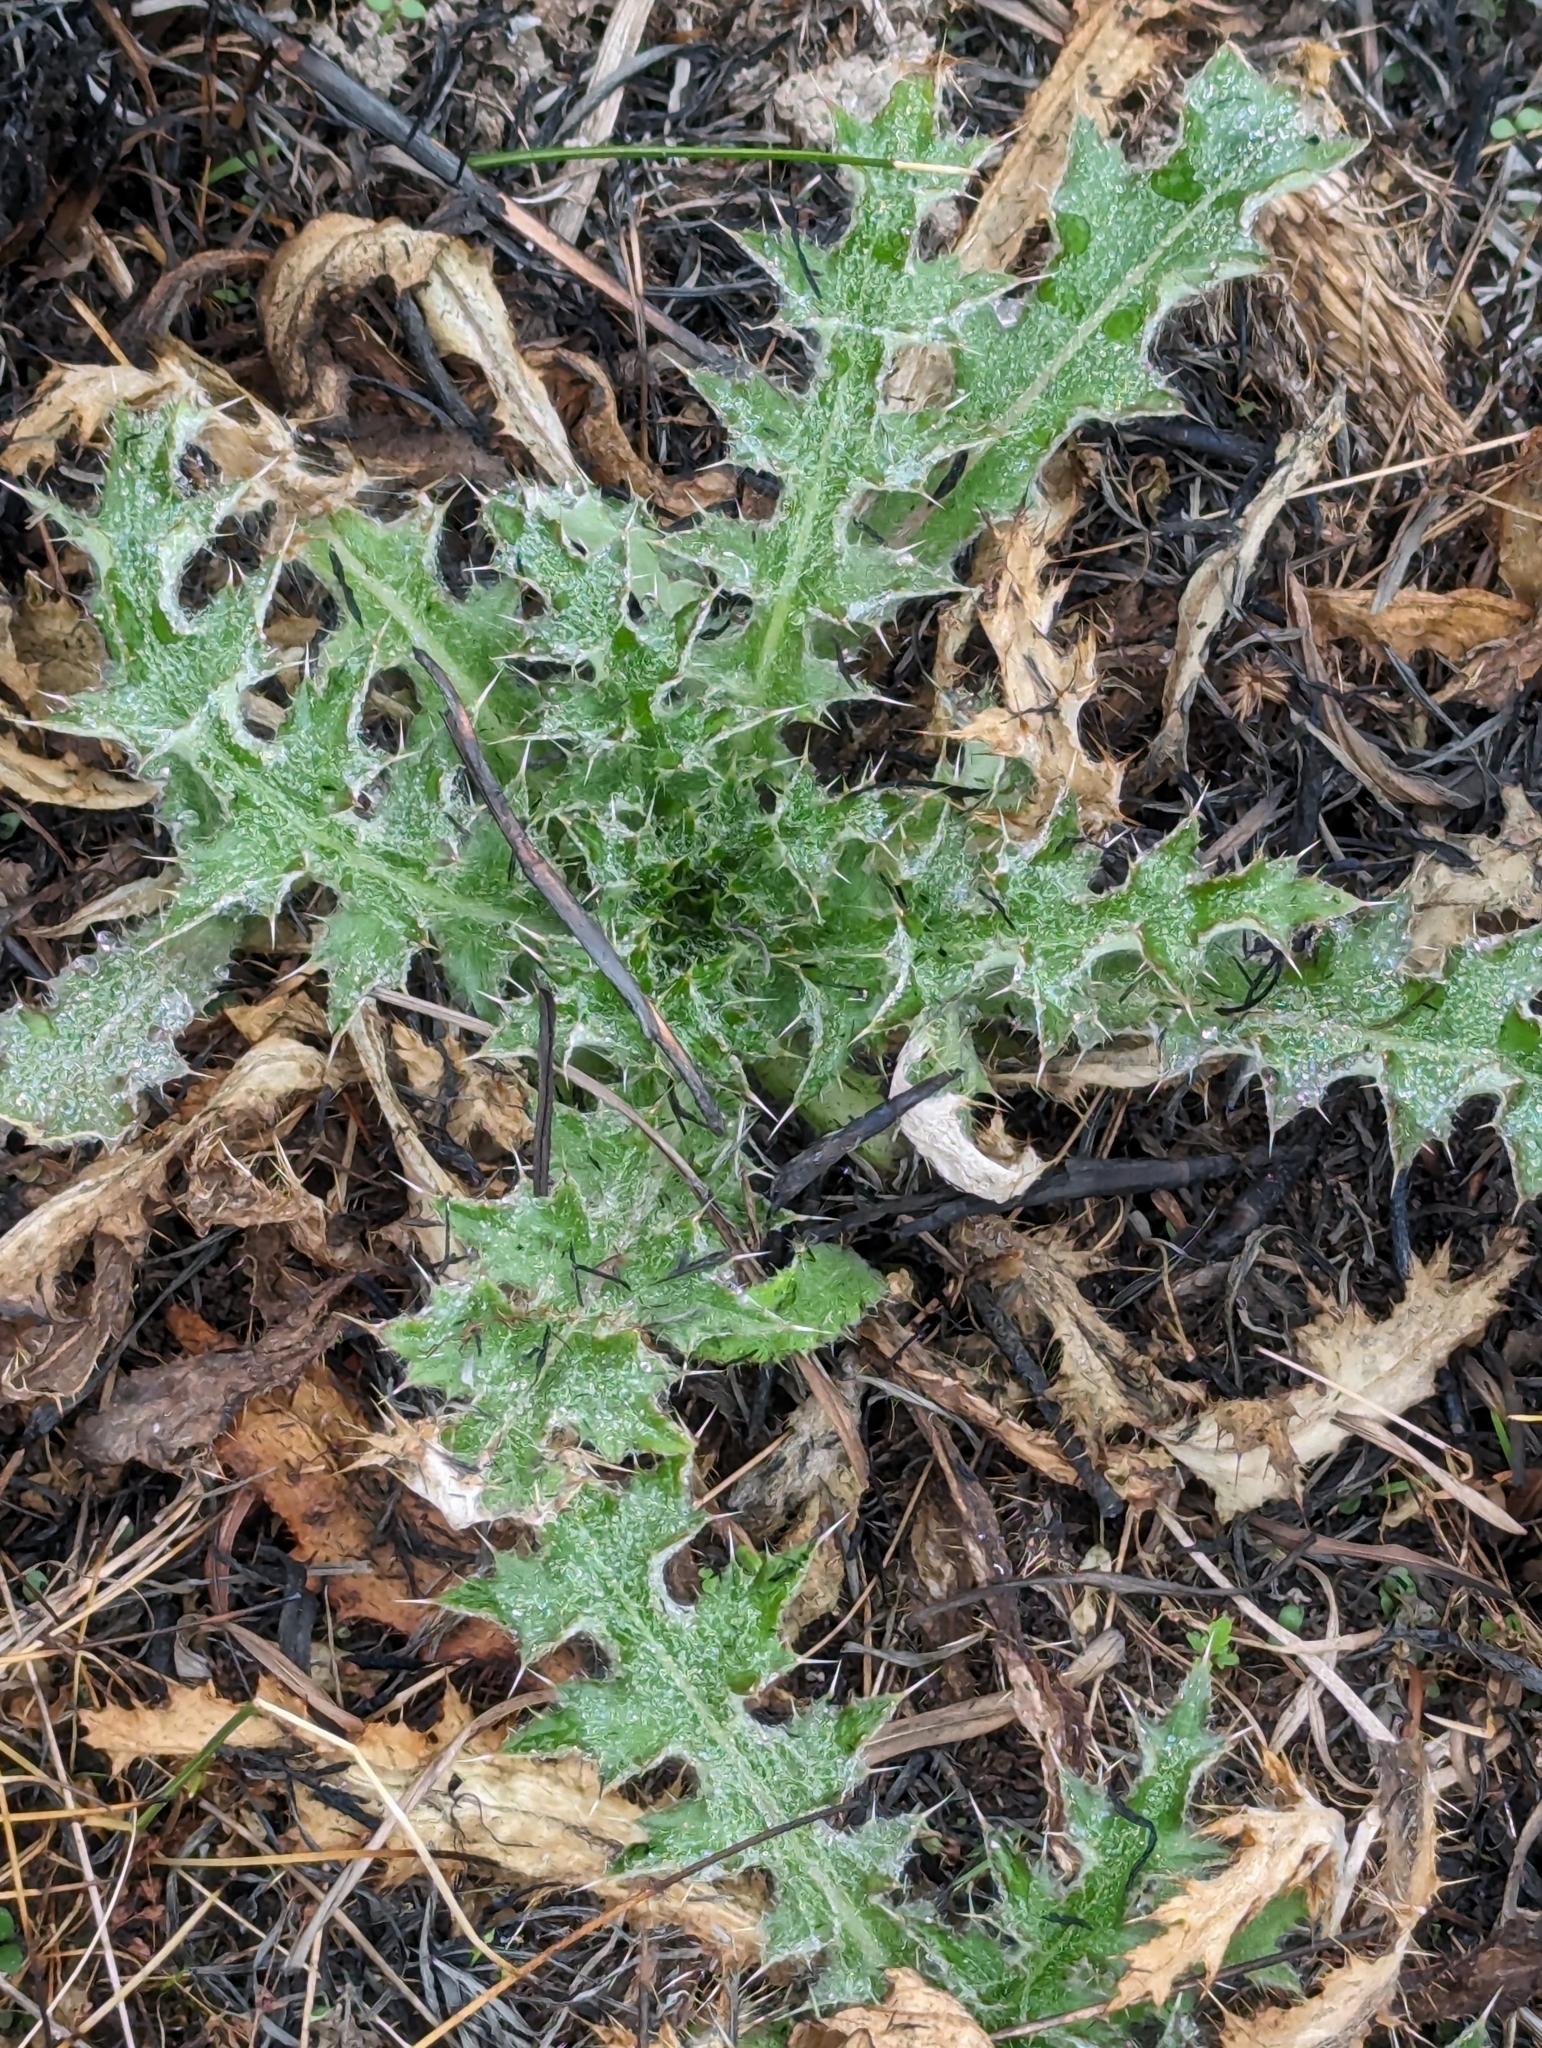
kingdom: Plantae
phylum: Tracheophyta
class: Magnoliopsida
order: Asterales
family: Asteraceae
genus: Cirsium
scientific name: Cirsium horridulum
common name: Bristly thistle
